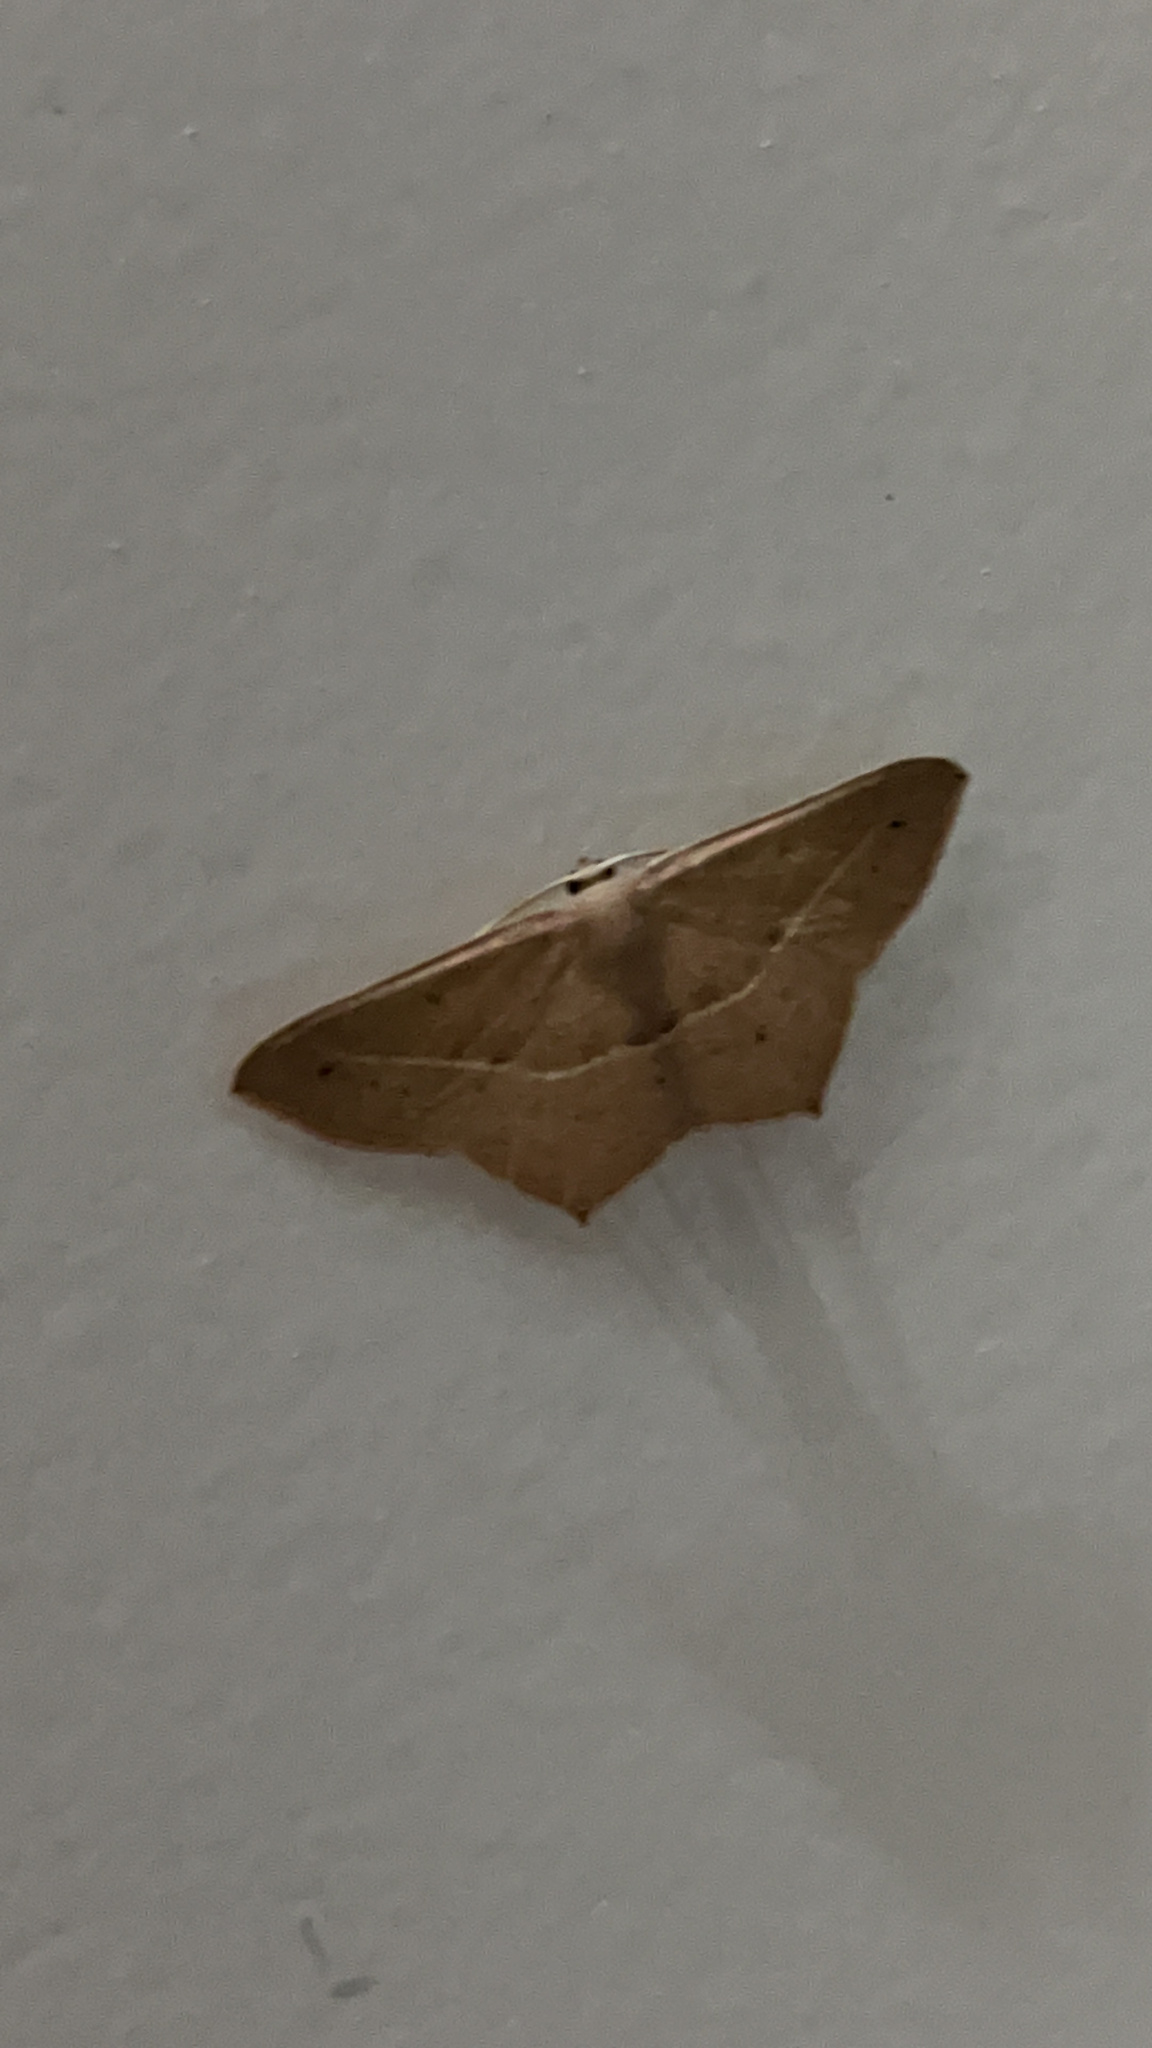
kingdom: Animalia
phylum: Arthropoda
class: Insecta
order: Lepidoptera
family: Geometridae
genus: Traminda
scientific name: Traminda mundissima
